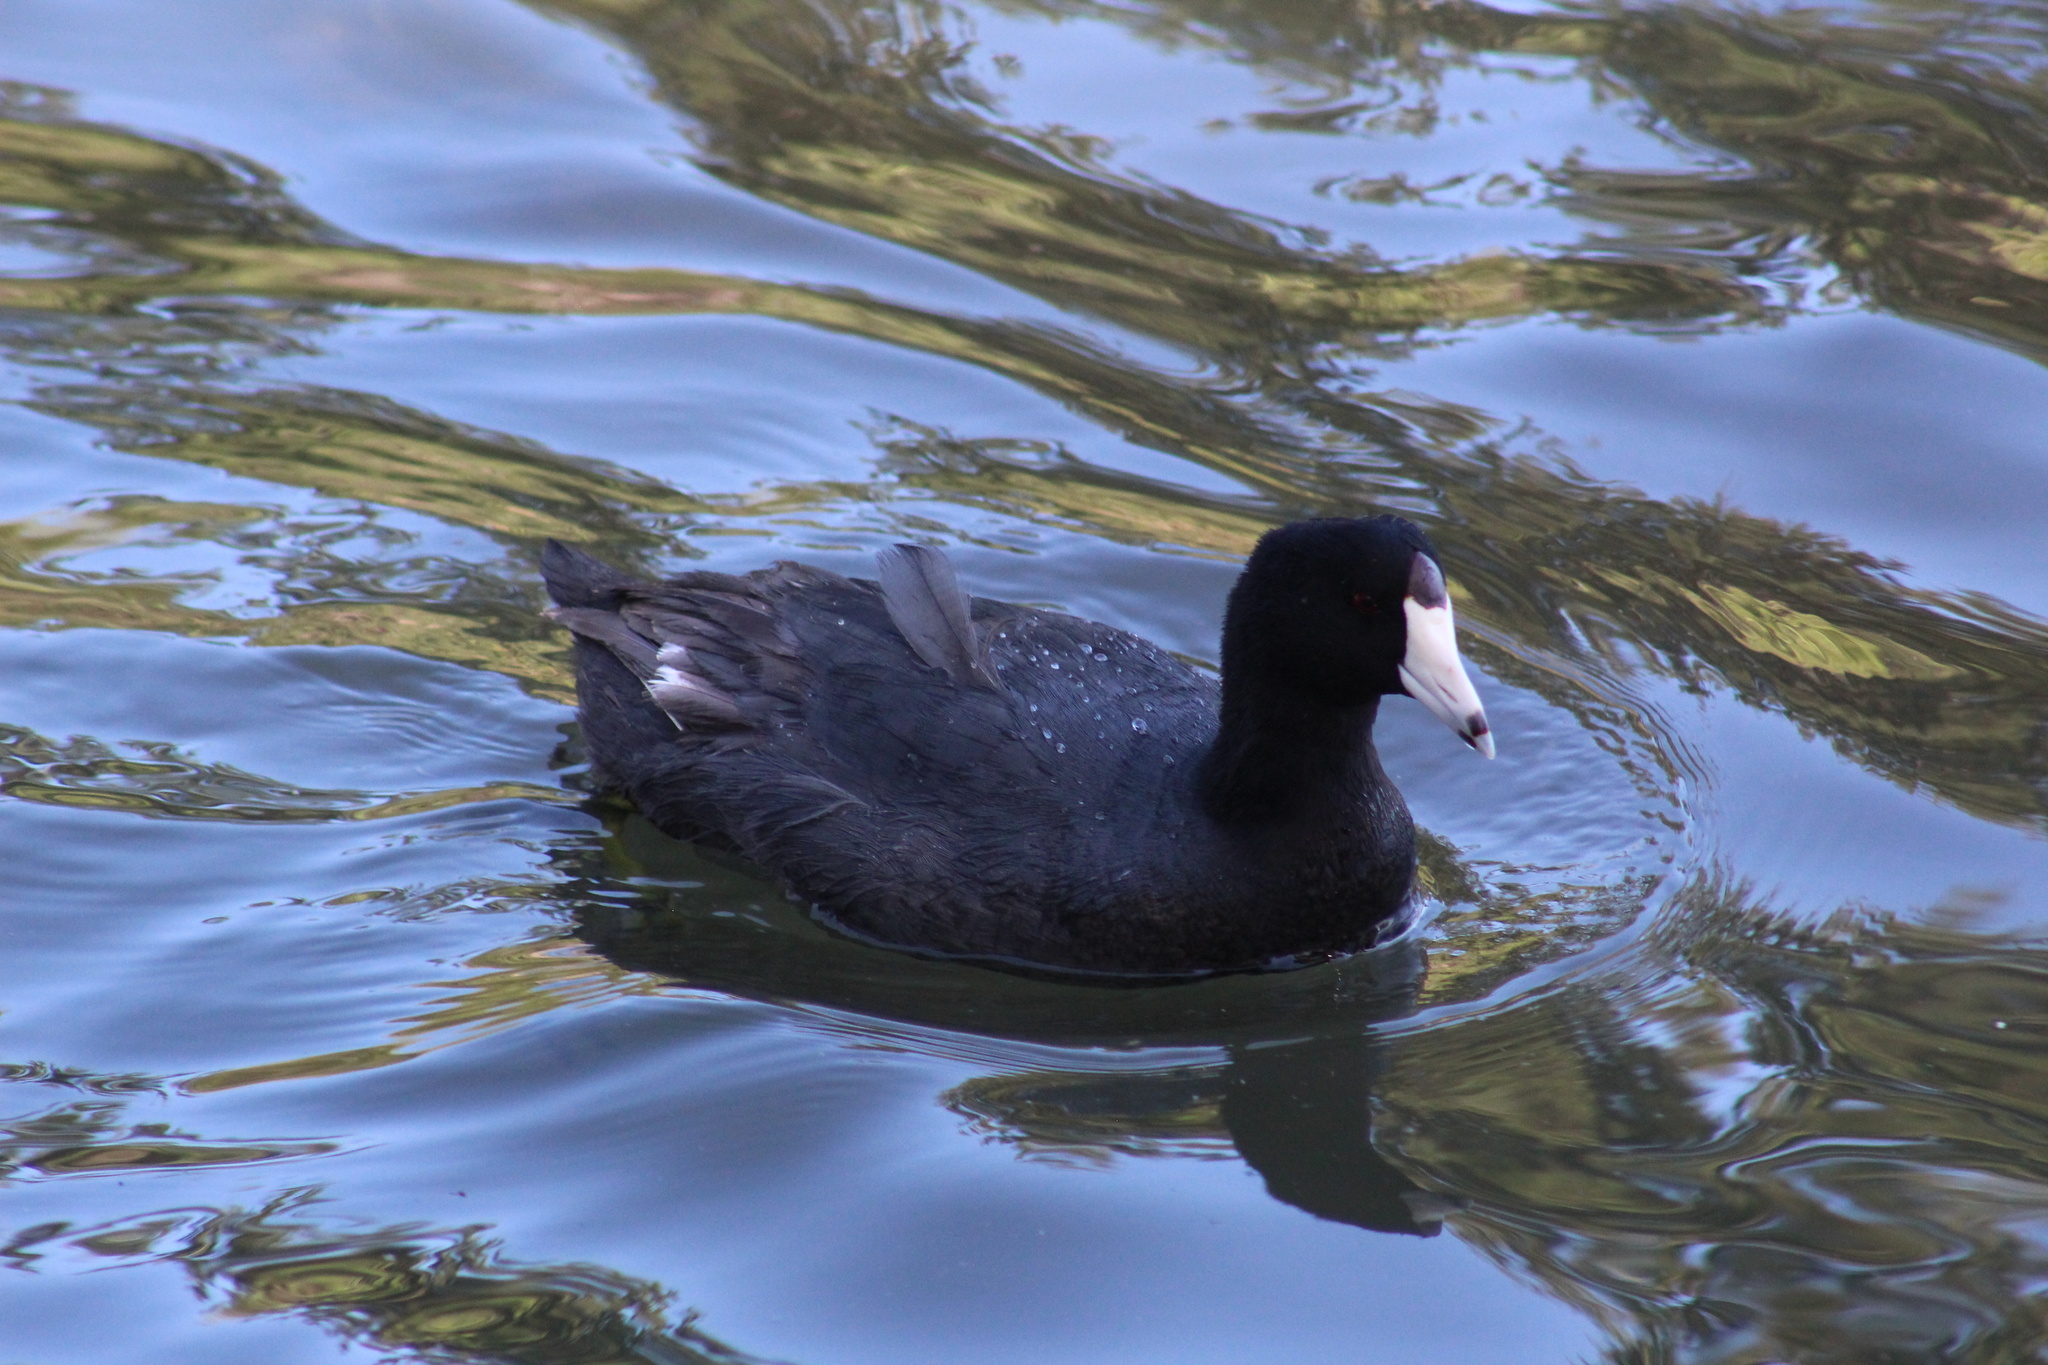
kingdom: Animalia
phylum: Chordata
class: Aves
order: Gruiformes
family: Rallidae
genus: Fulica
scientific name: Fulica americana
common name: American coot
